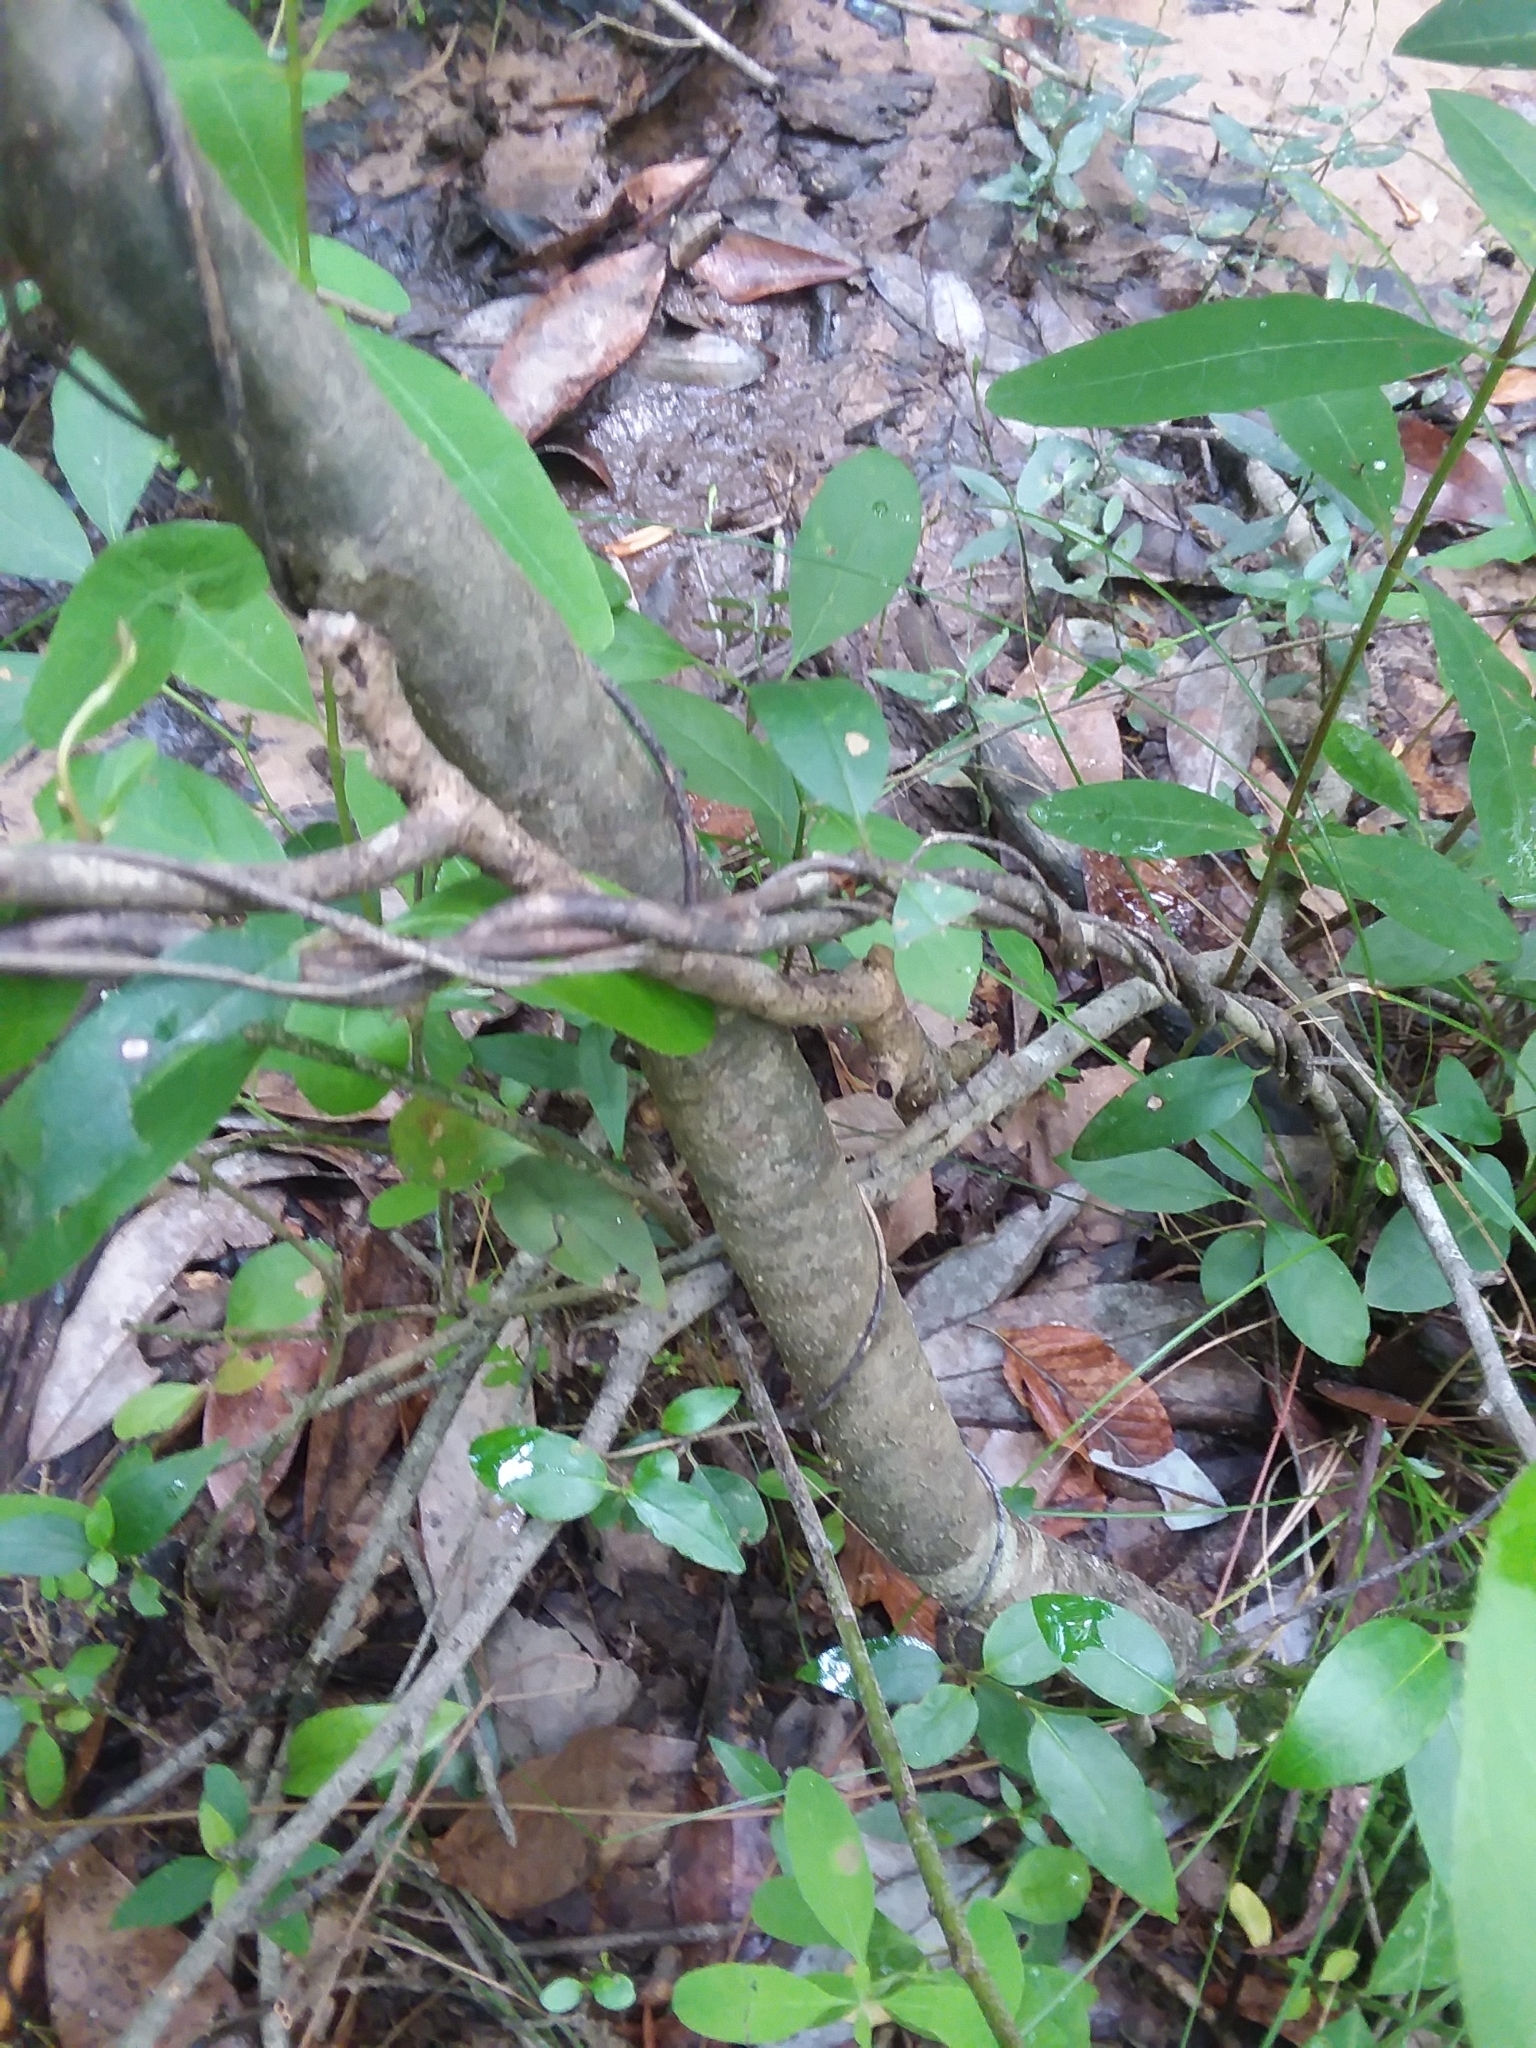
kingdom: Plantae
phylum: Tracheophyta
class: Magnoliopsida
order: Aquifoliales
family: Aquifoliaceae
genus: Ilex
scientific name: Ilex verticillata
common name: Virginia winterberry
